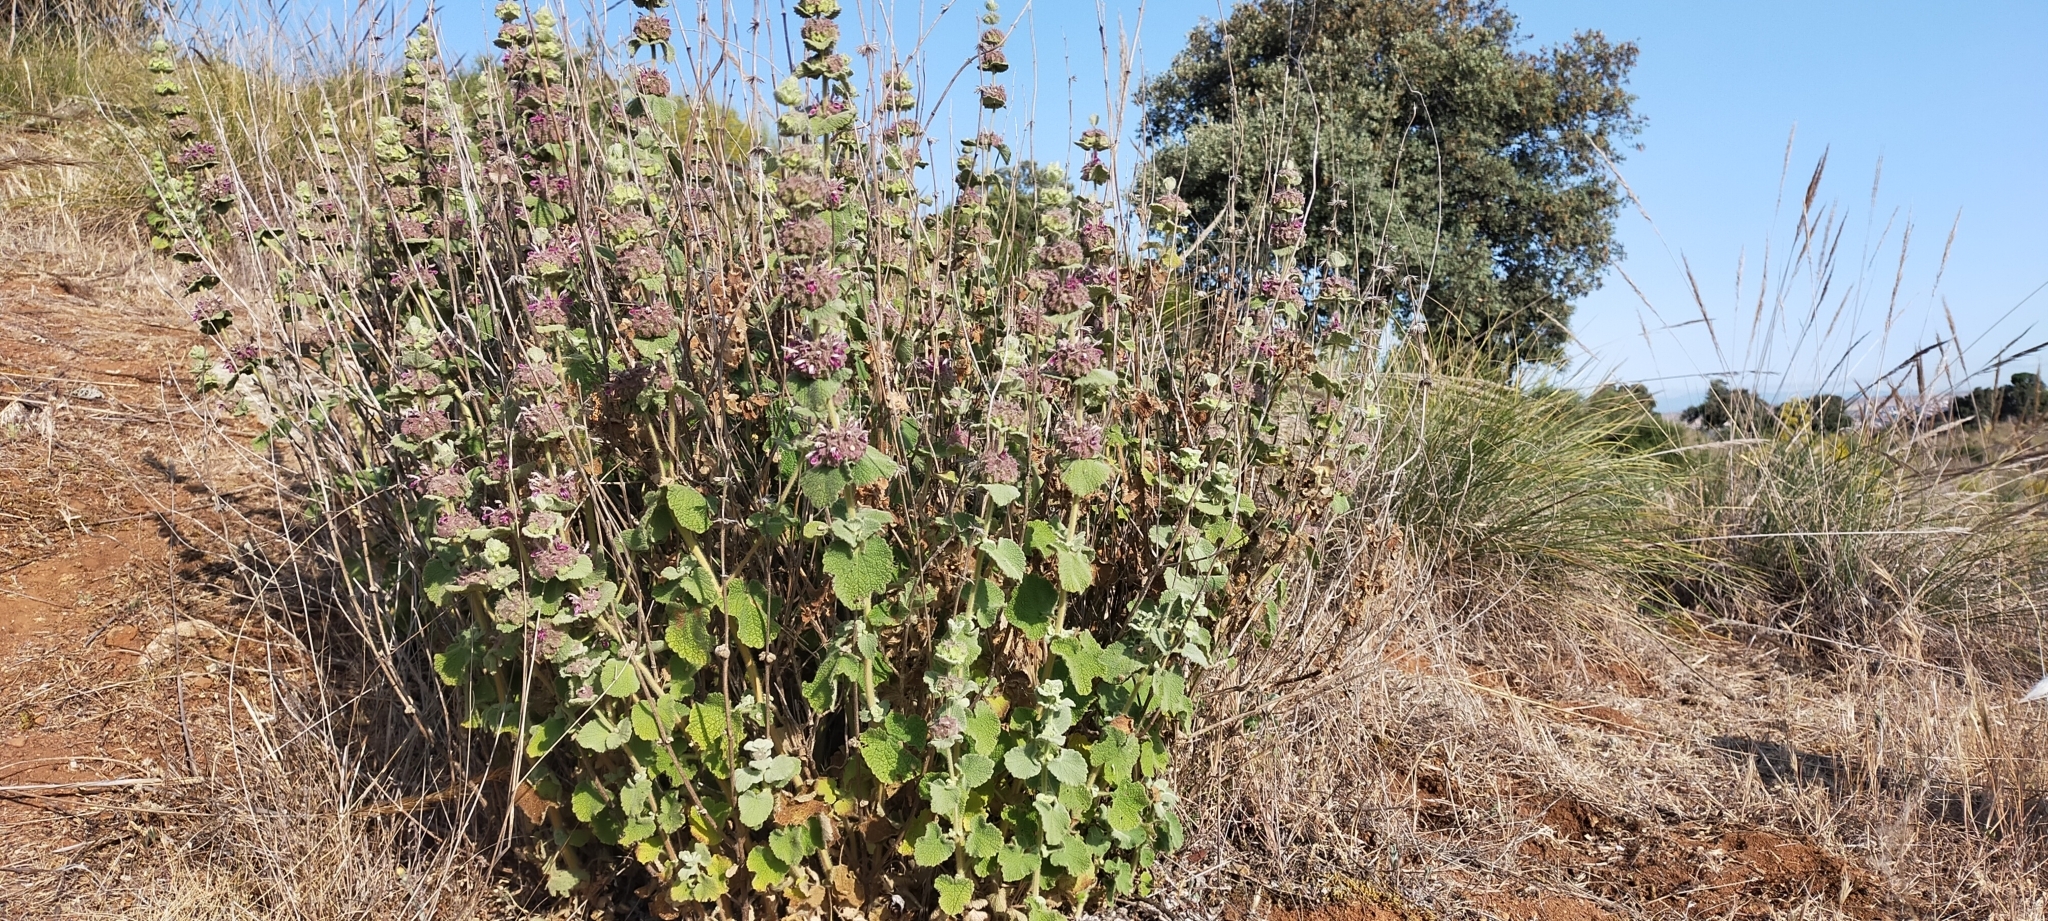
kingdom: Plantae
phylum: Tracheophyta
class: Magnoliopsida
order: Lamiales
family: Lamiaceae
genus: Pseudodictamnus
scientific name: Pseudodictamnus hirsutus
